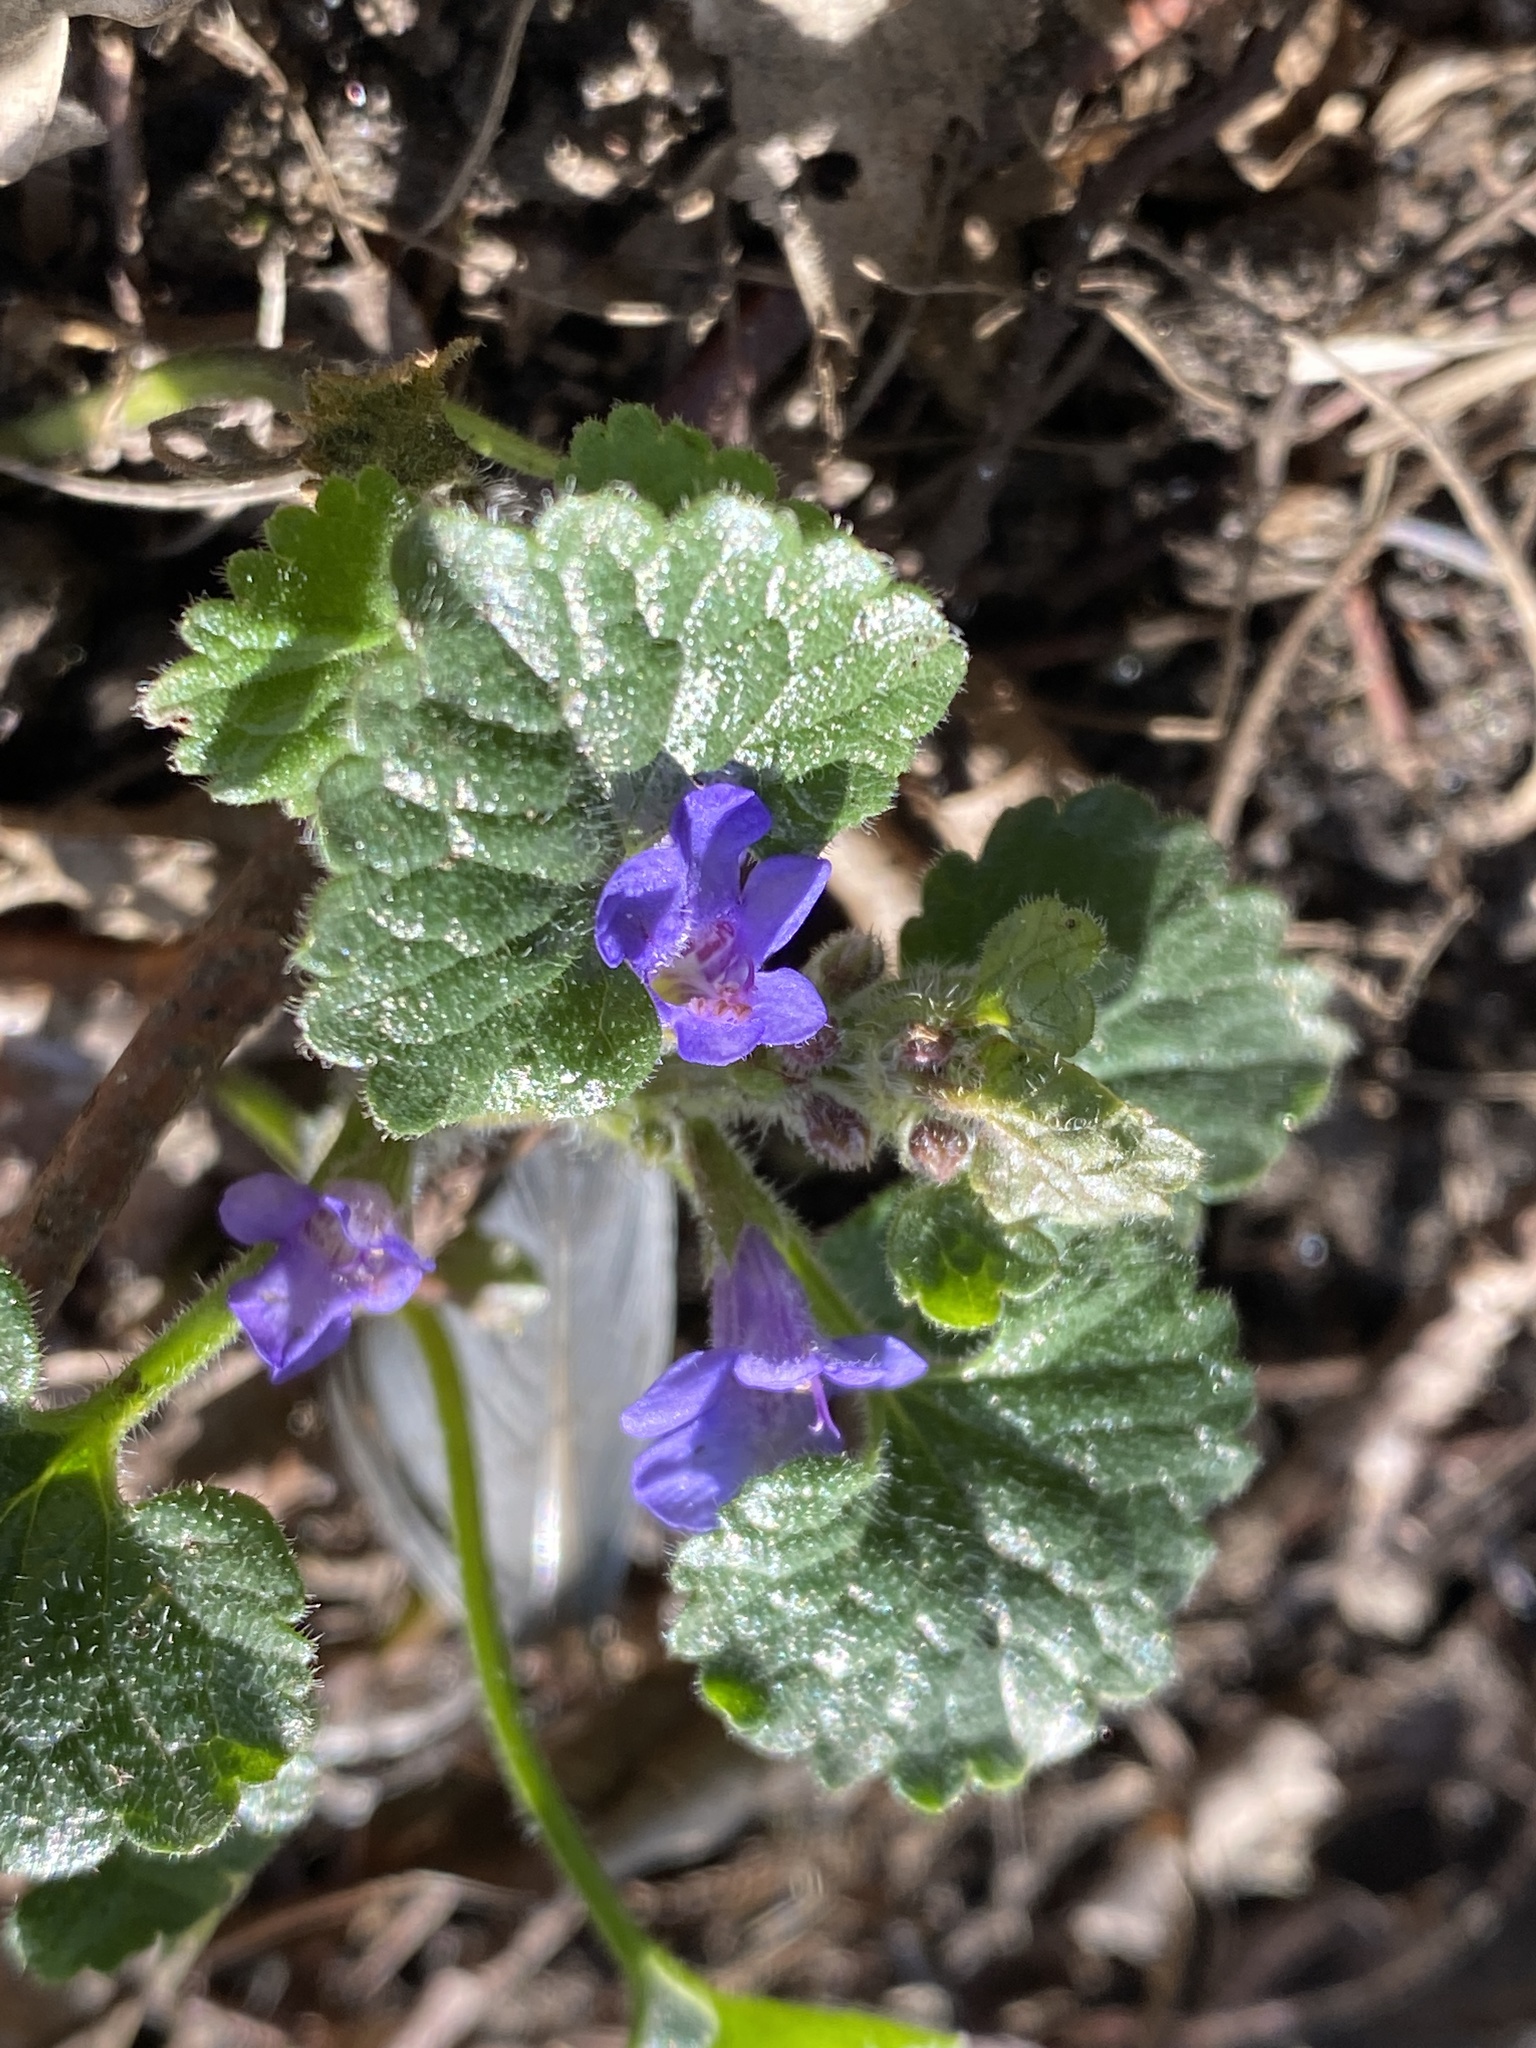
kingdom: Plantae
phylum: Tracheophyta
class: Magnoliopsida
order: Lamiales
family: Lamiaceae
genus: Glechoma
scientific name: Glechoma hederacea
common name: Ground ivy
